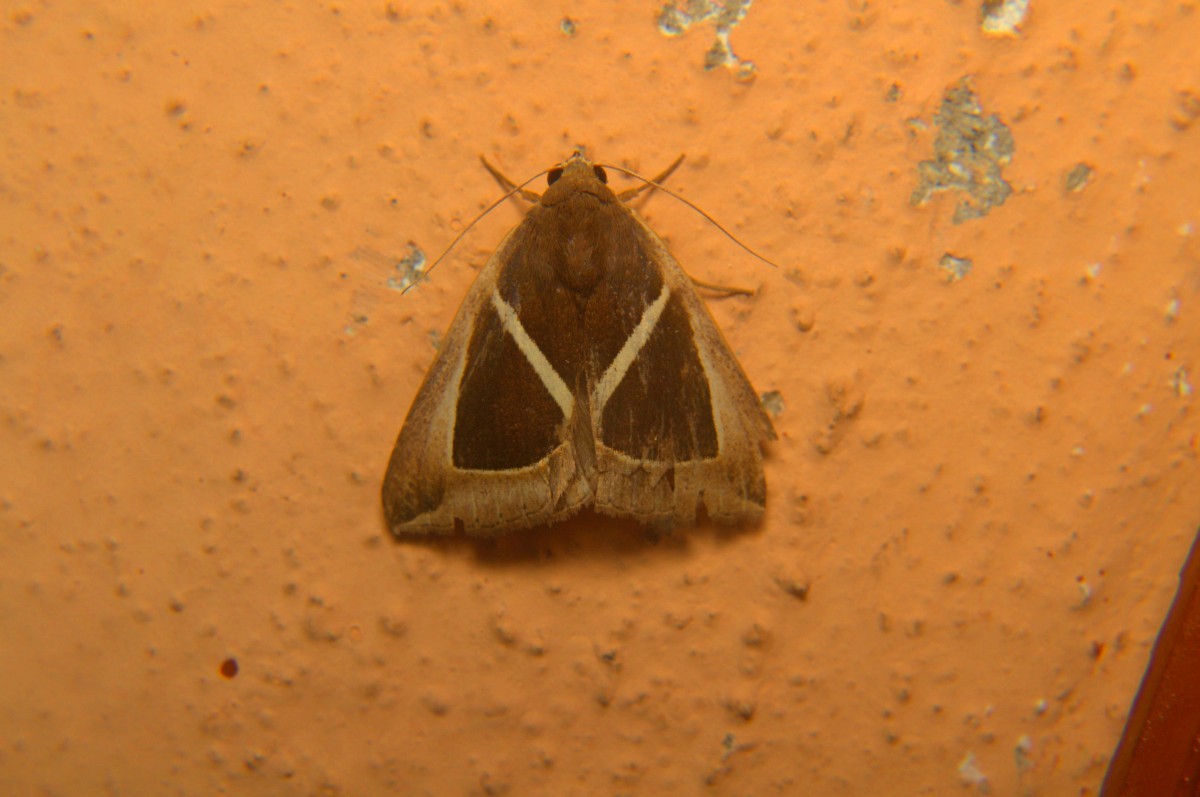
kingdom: Animalia
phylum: Arthropoda
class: Insecta
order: Lepidoptera
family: Erebidae
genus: Chalciope
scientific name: Chalciope mygdon
